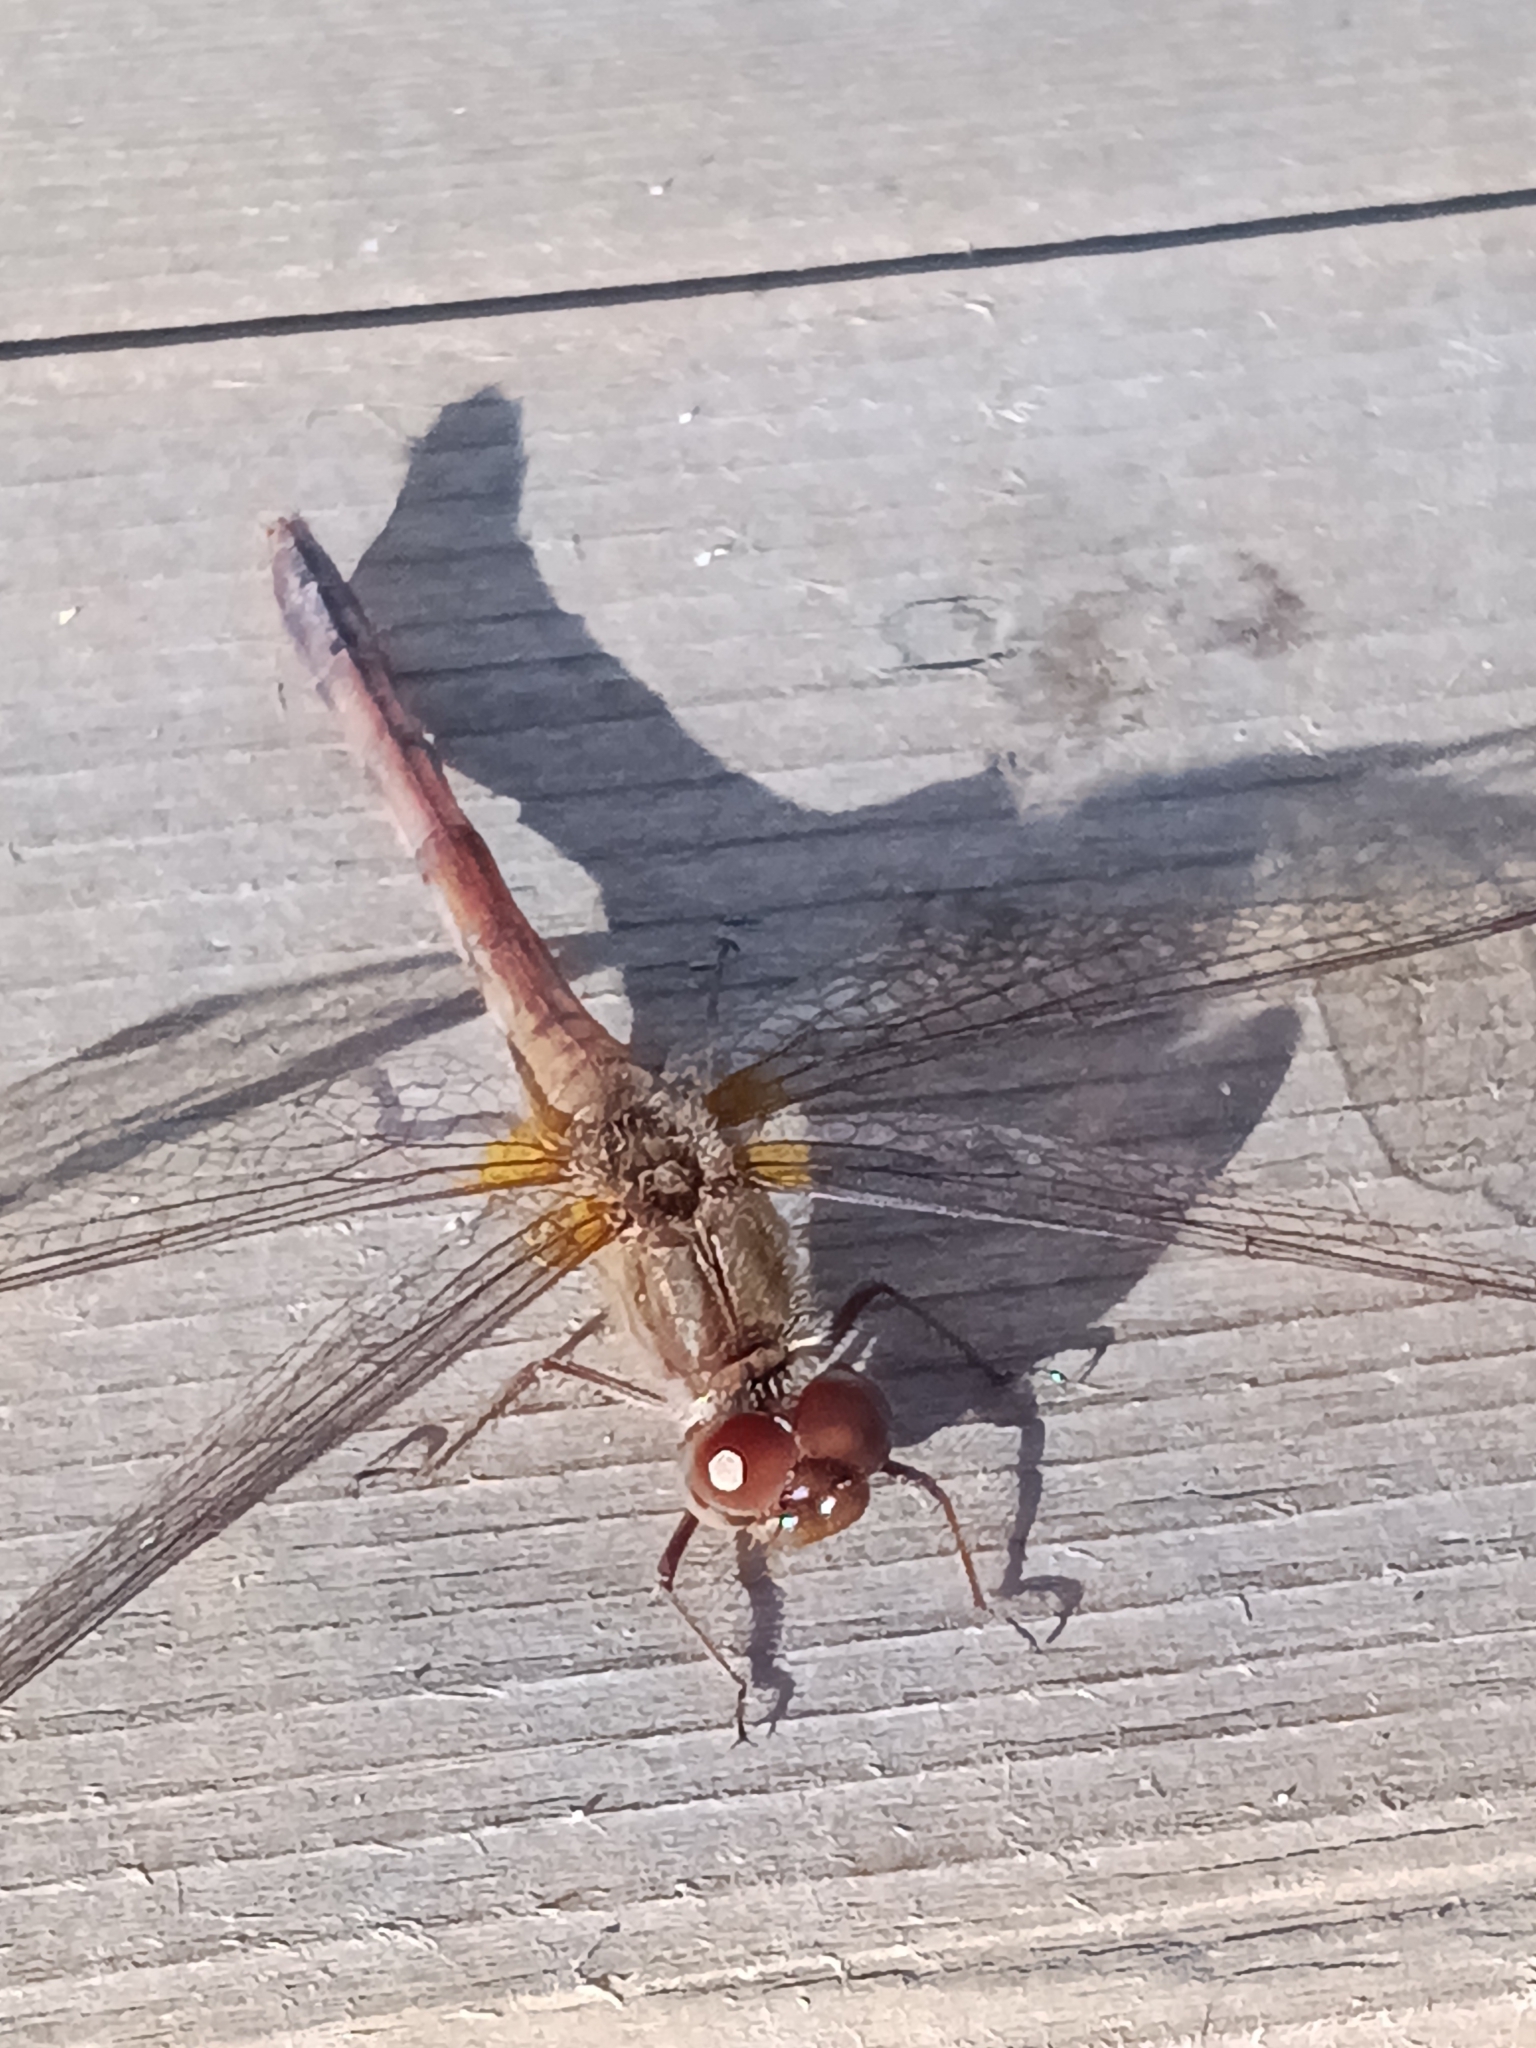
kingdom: Animalia
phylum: Arthropoda
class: Insecta
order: Odonata
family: Libellulidae
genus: Sympetrum
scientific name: Sympetrum vicinum
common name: Autumn meadowhawk
